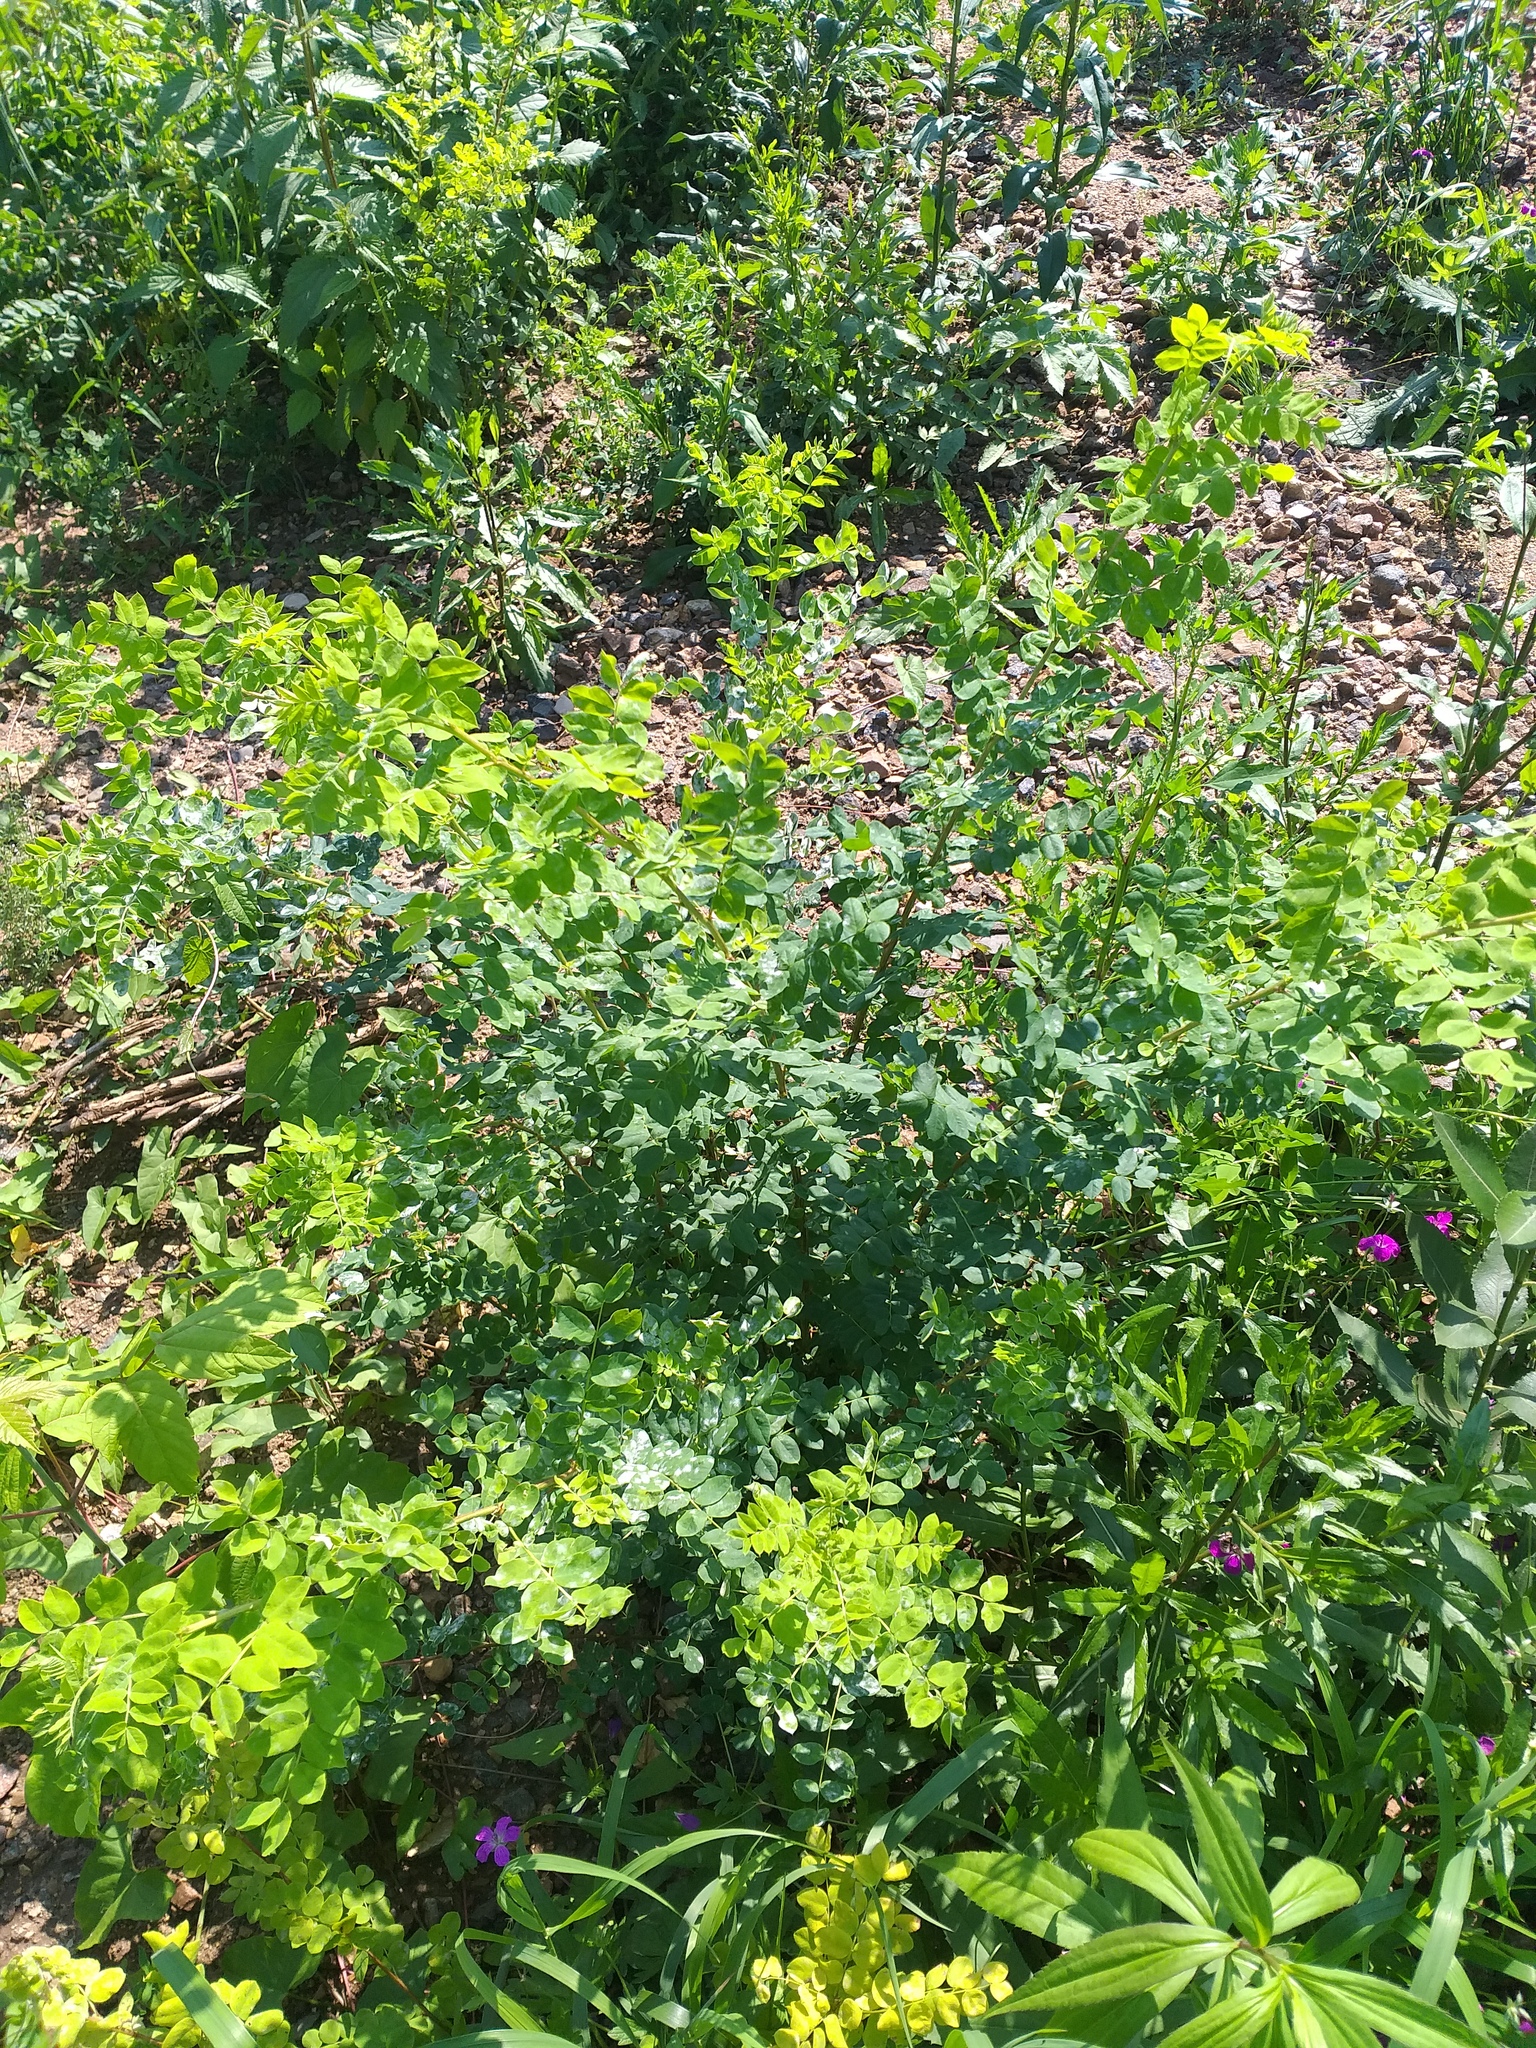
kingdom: Plantae
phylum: Tracheophyta
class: Magnoliopsida
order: Fabales
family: Fabaceae
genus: Caragana
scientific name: Caragana arborescens
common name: Siberian peashrub
